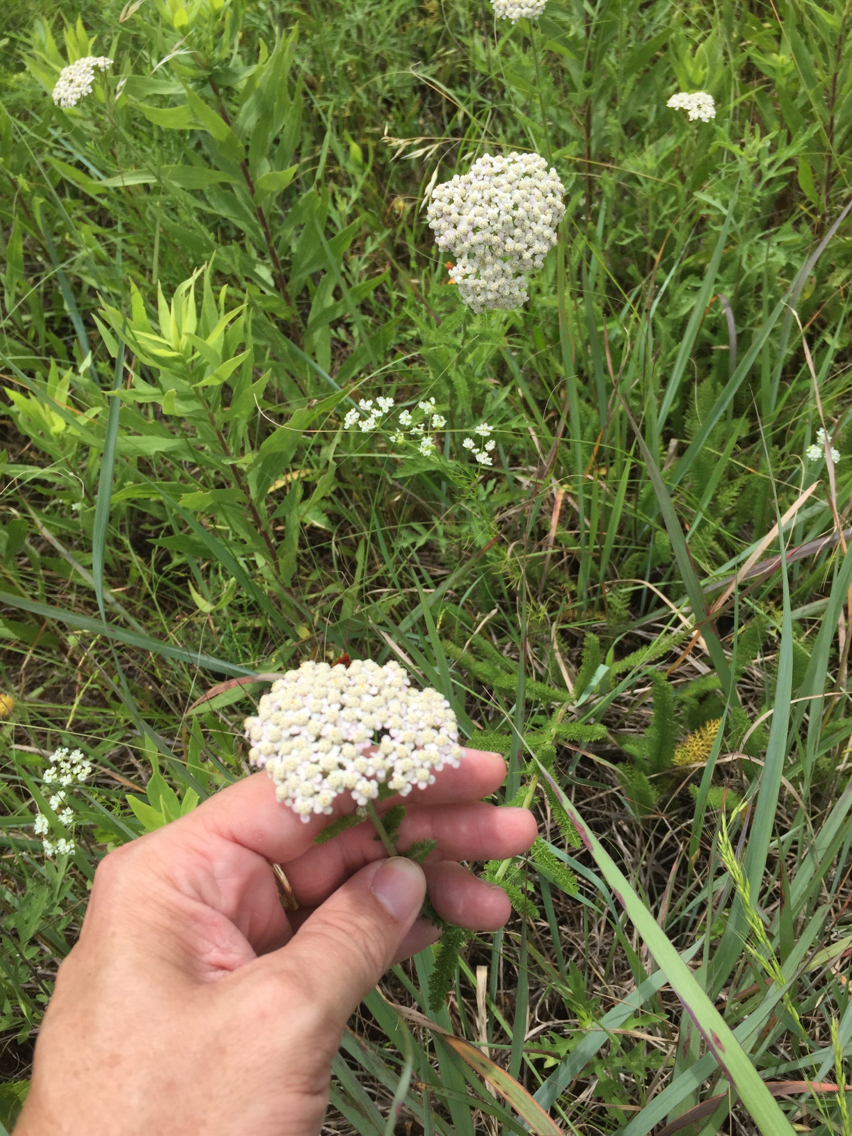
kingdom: Plantae
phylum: Tracheophyta
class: Magnoliopsida
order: Asterales
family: Asteraceae
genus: Achillea
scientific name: Achillea millefolium
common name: Yarrow
